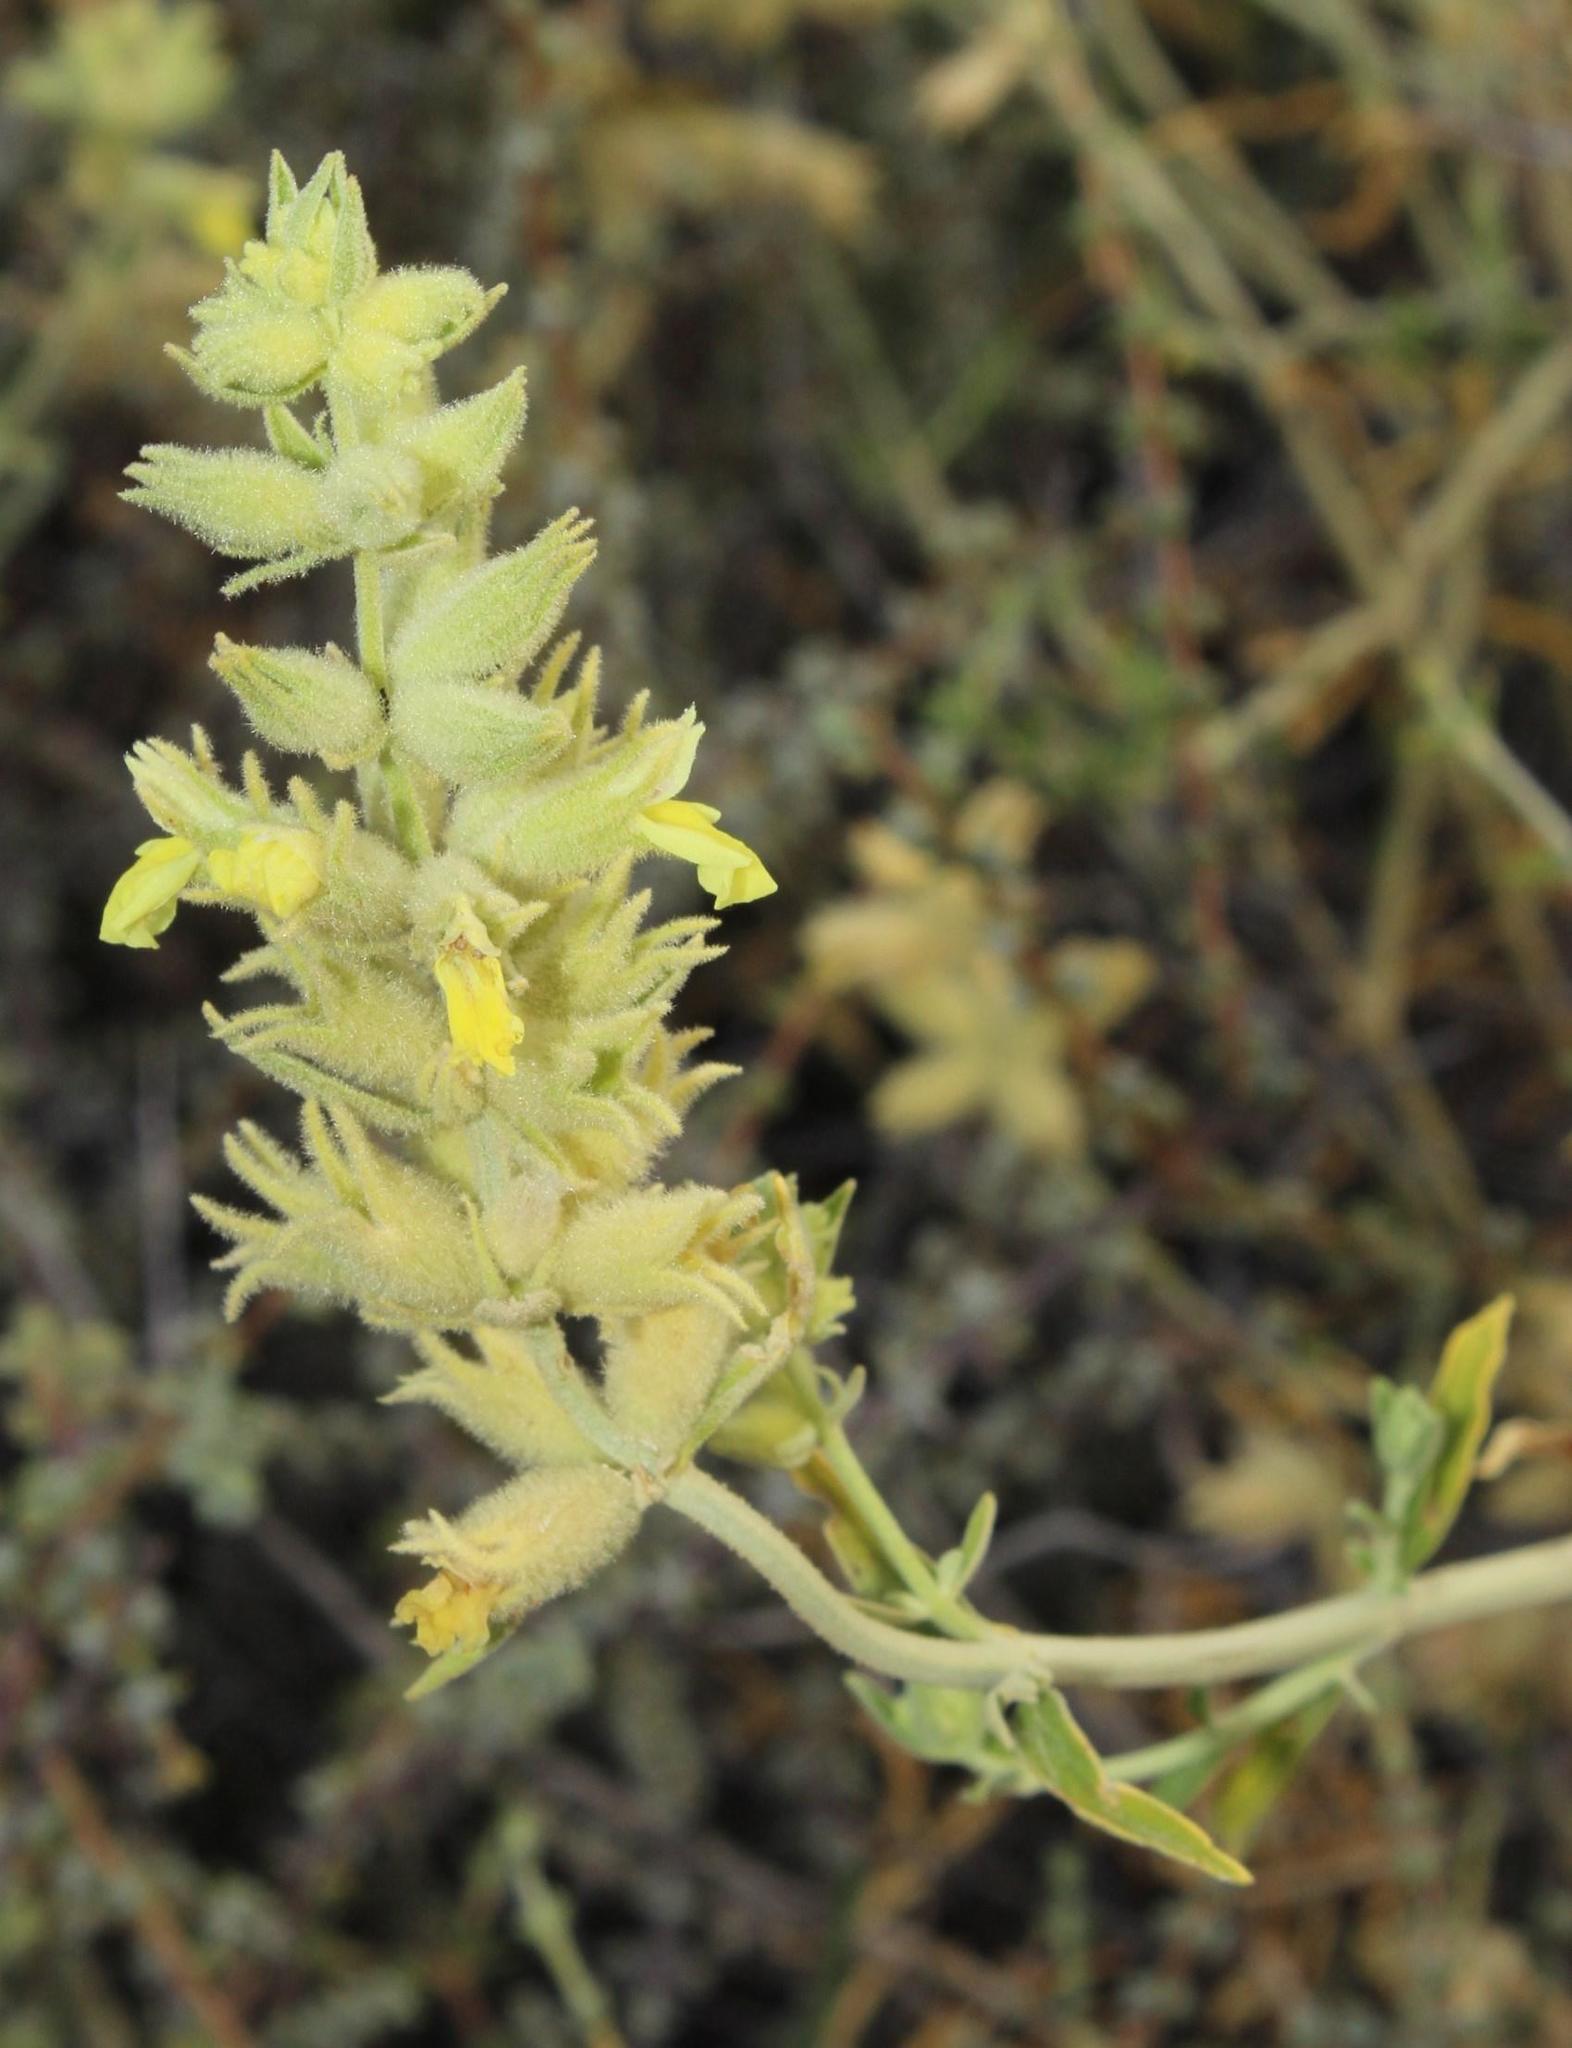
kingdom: Plantae
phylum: Tracheophyta
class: Magnoliopsida
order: Lamiales
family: Lamiaceae
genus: Stachys
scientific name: Stachys aurea
